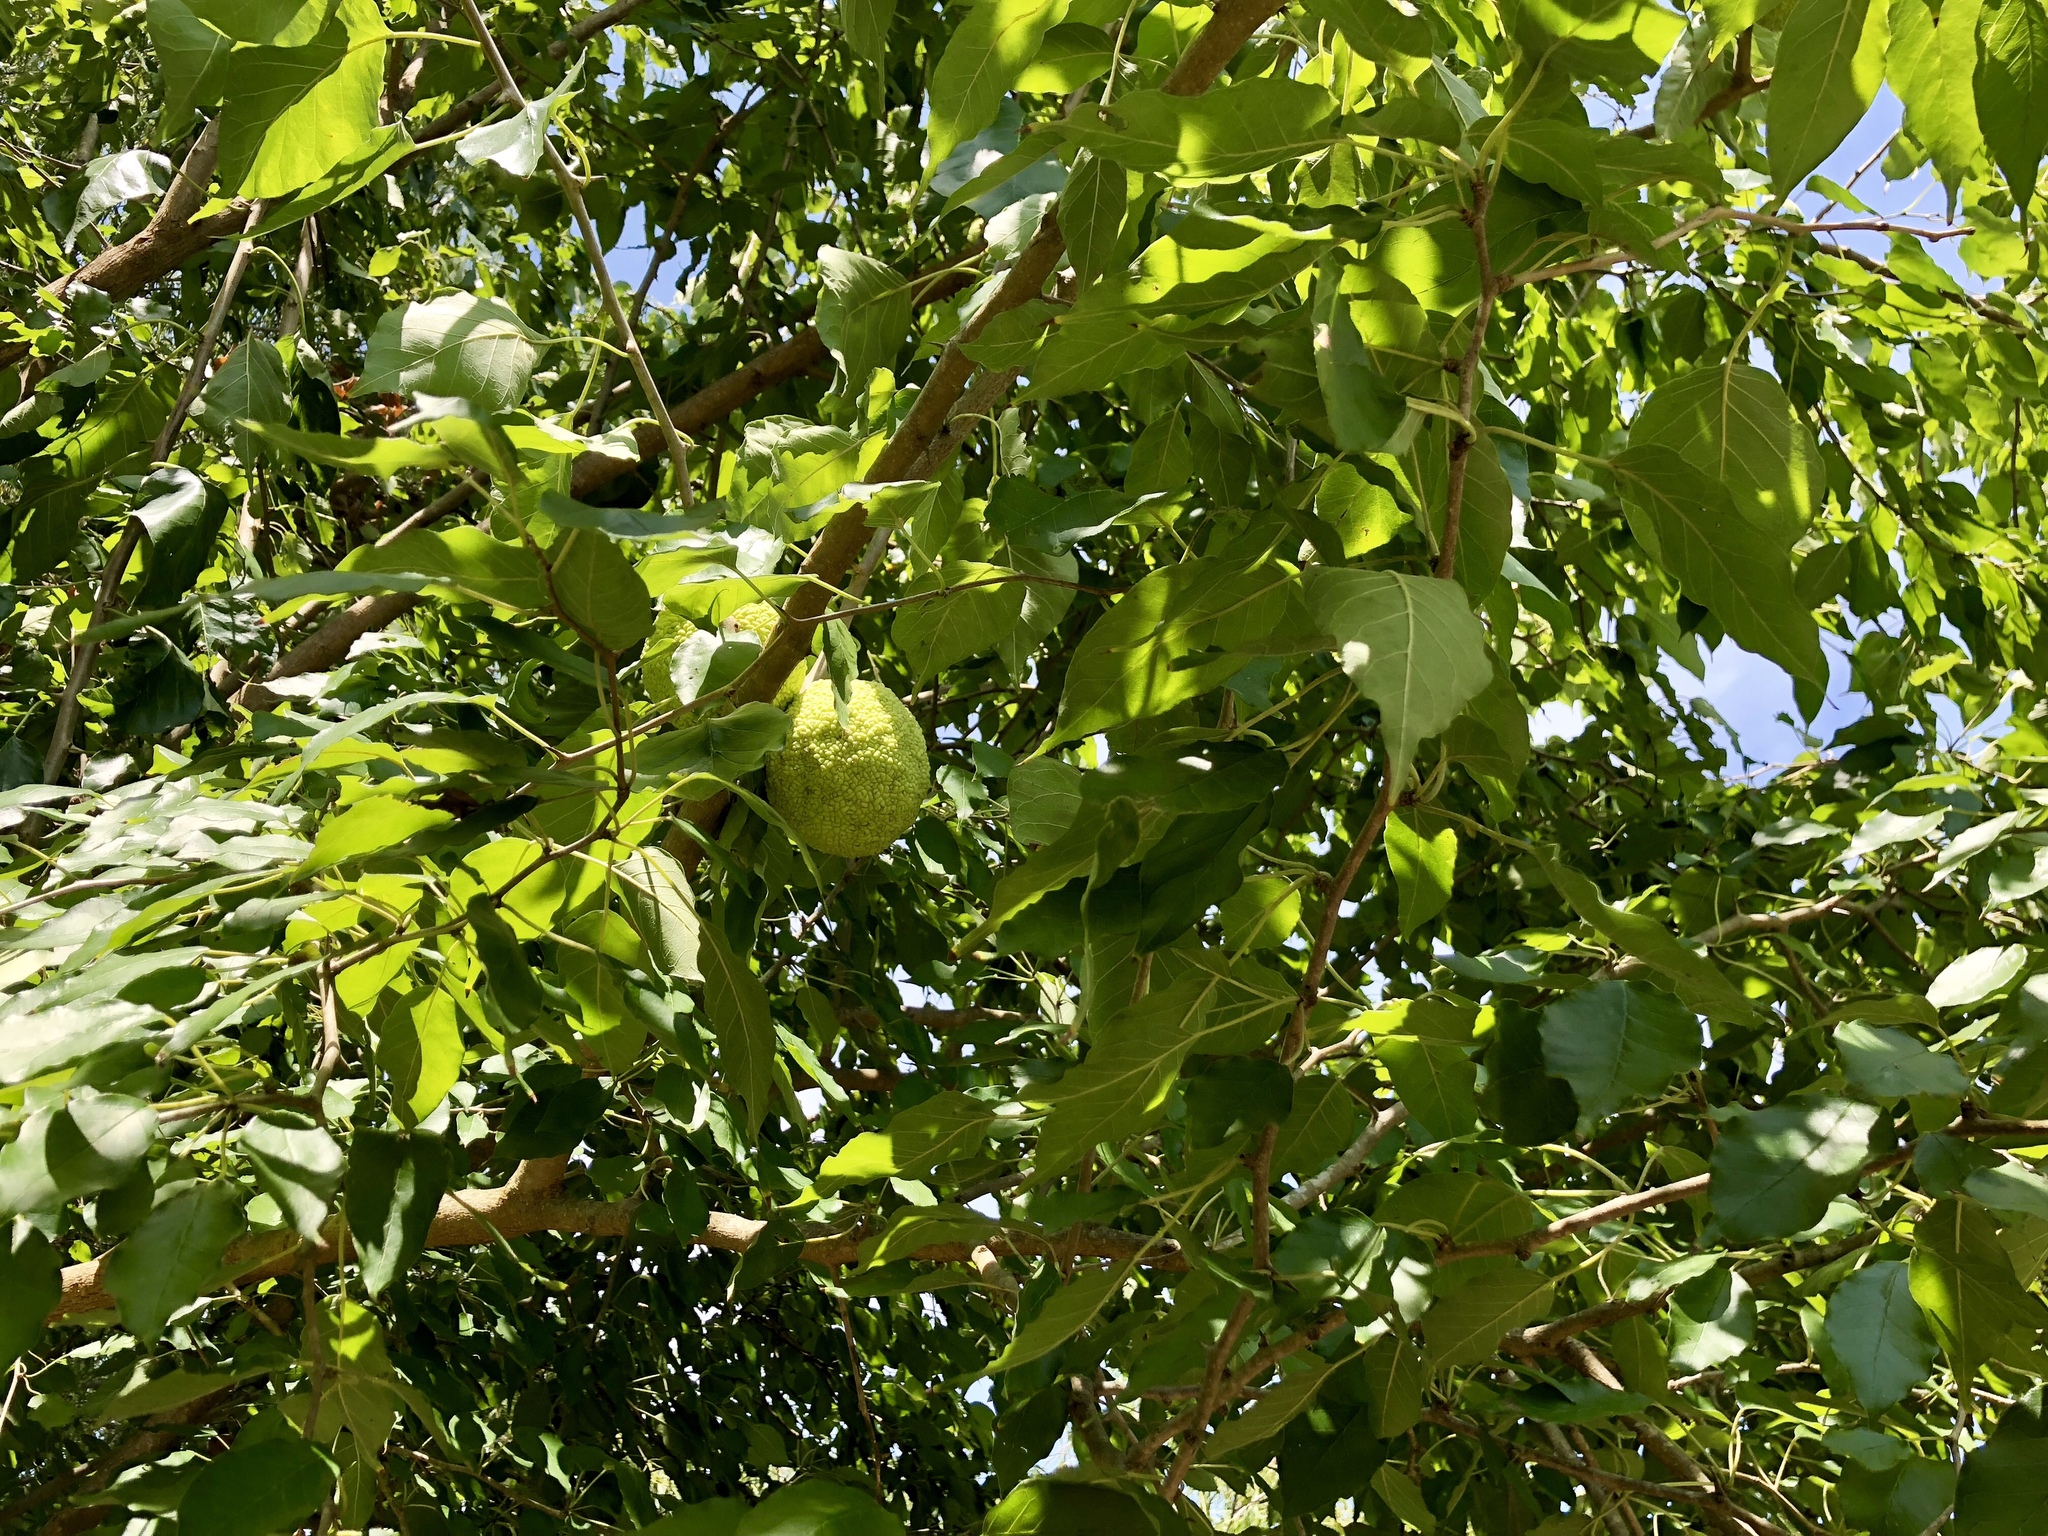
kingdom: Plantae
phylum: Tracheophyta
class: Magnoliopsida
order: Rosales
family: Moraceae
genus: Maclura
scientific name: Maclura pomifera
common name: Osage-orange
